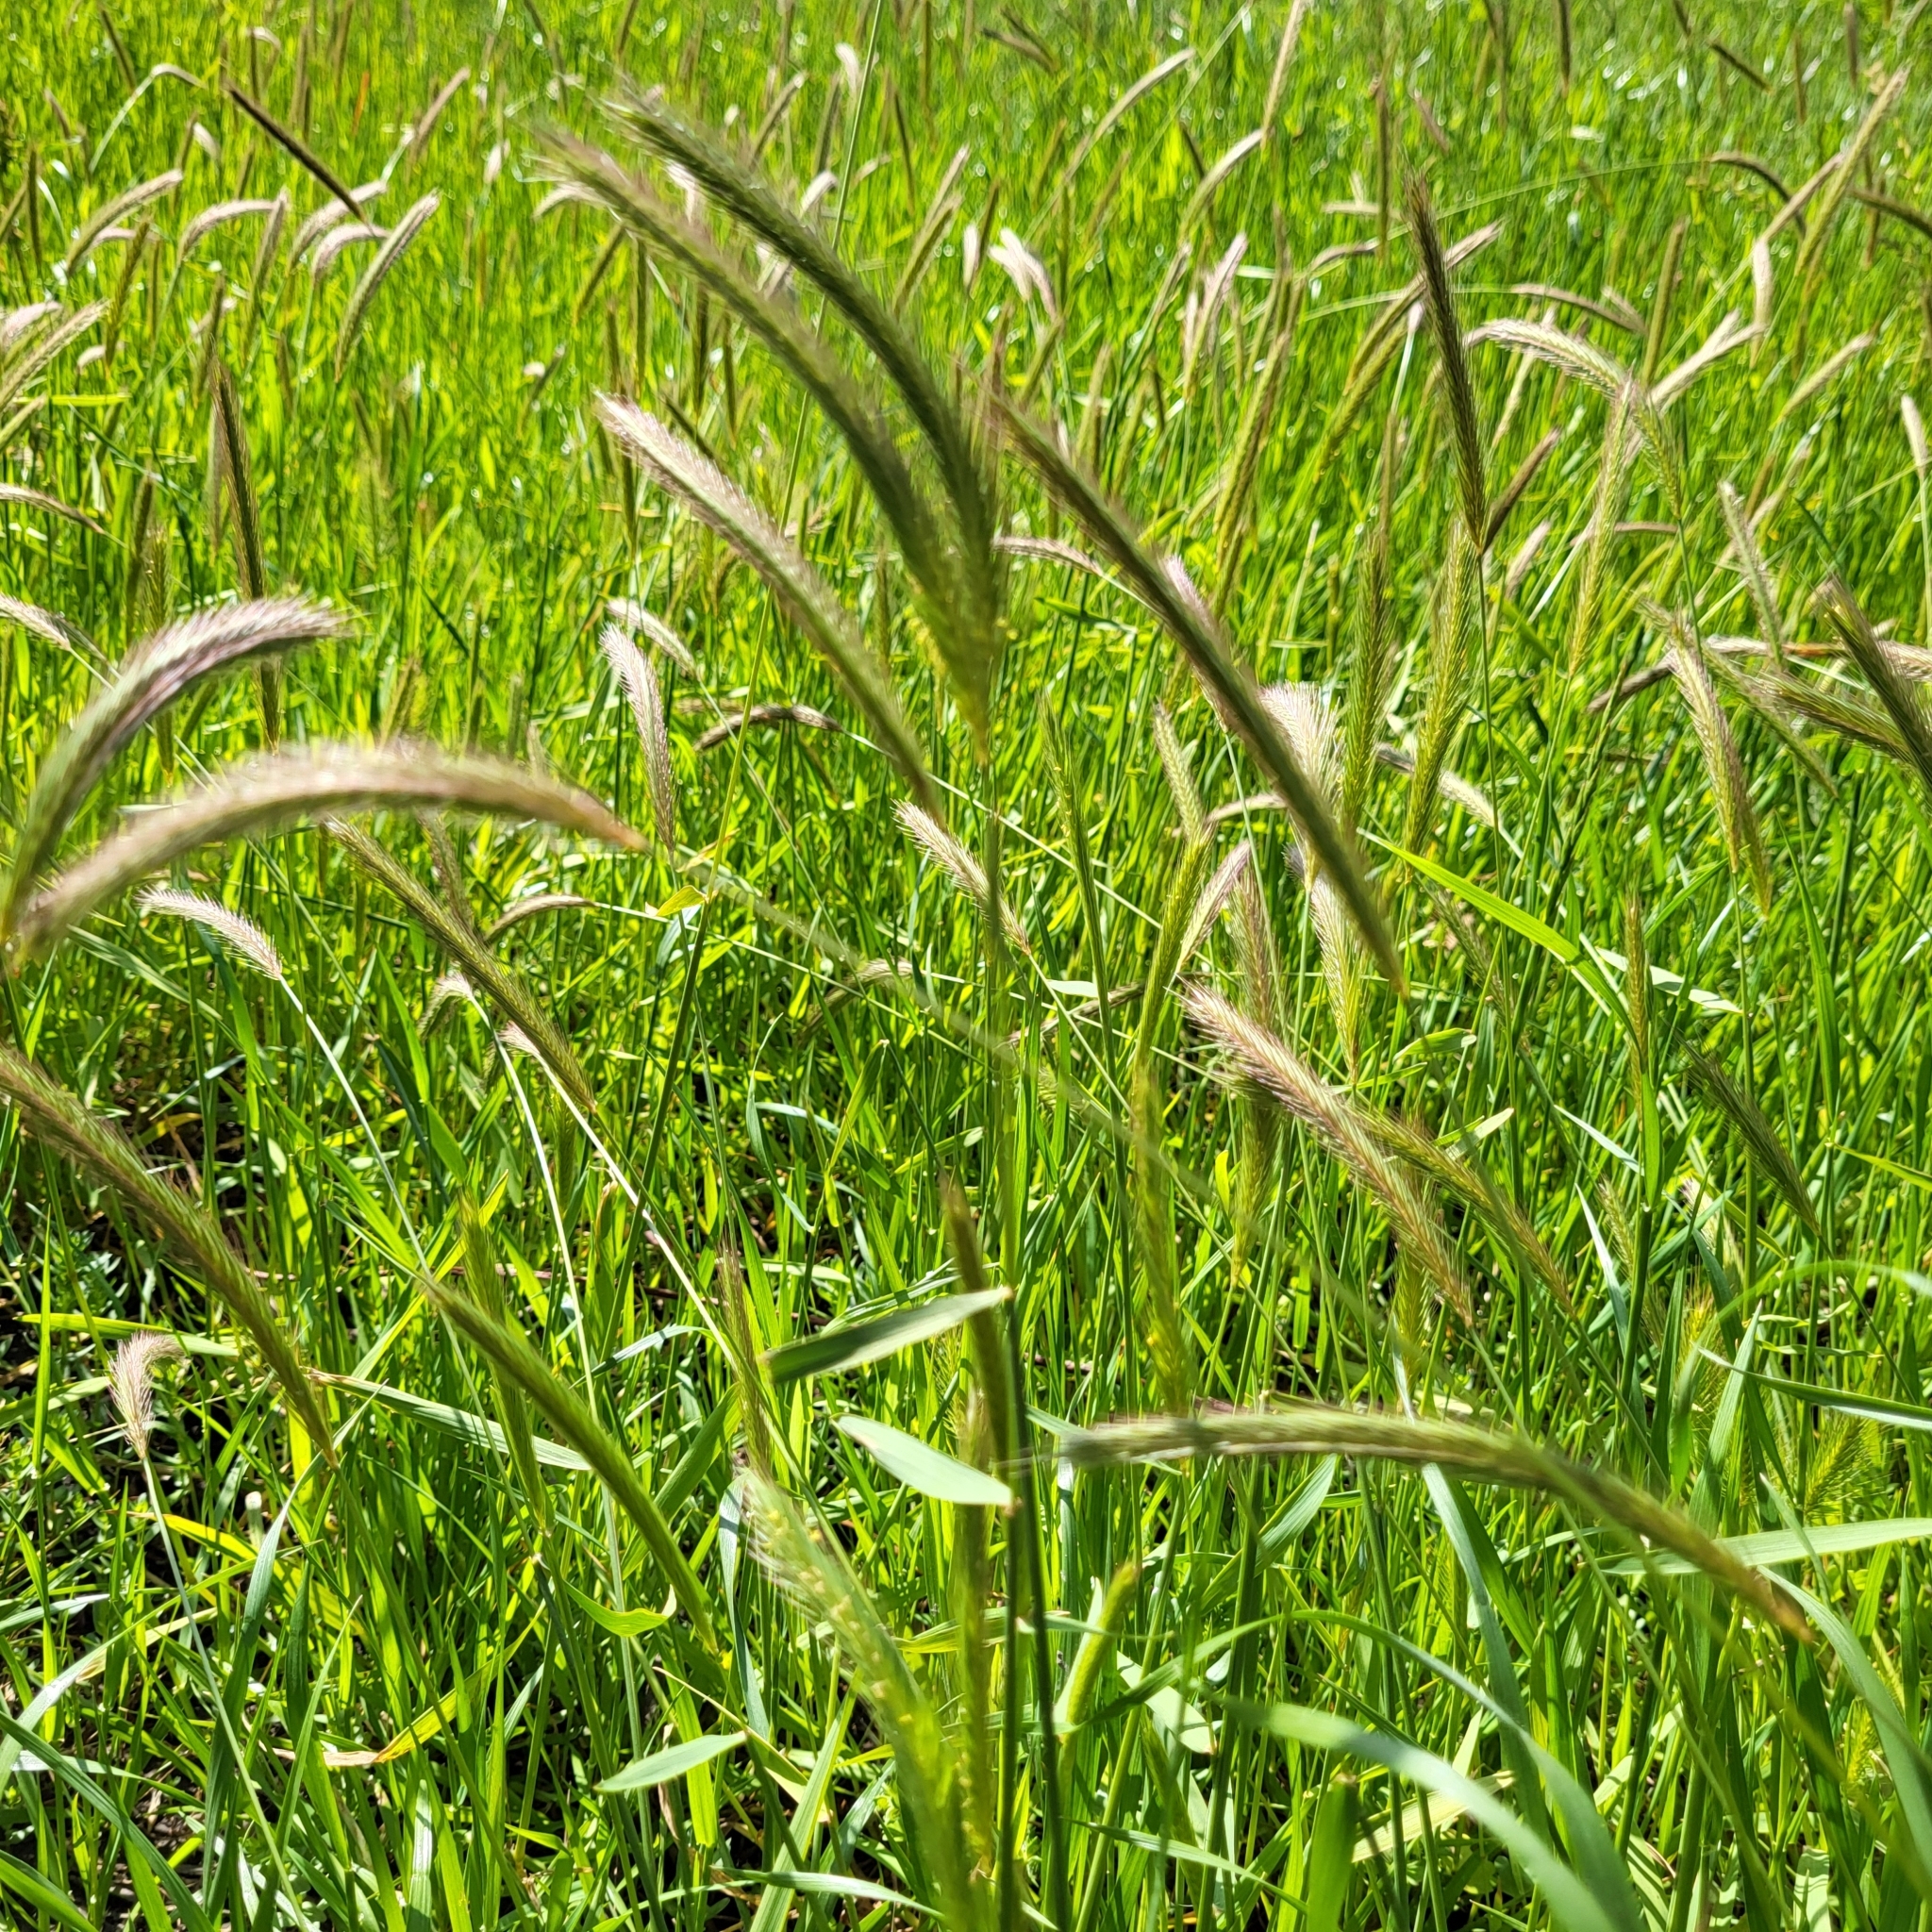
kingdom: Plantae
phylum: Tracheophyta
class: Liliopsida
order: Poales
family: Poaceae
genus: Hordeum
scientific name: Hordeum brachyantherum
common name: Meadow barley
